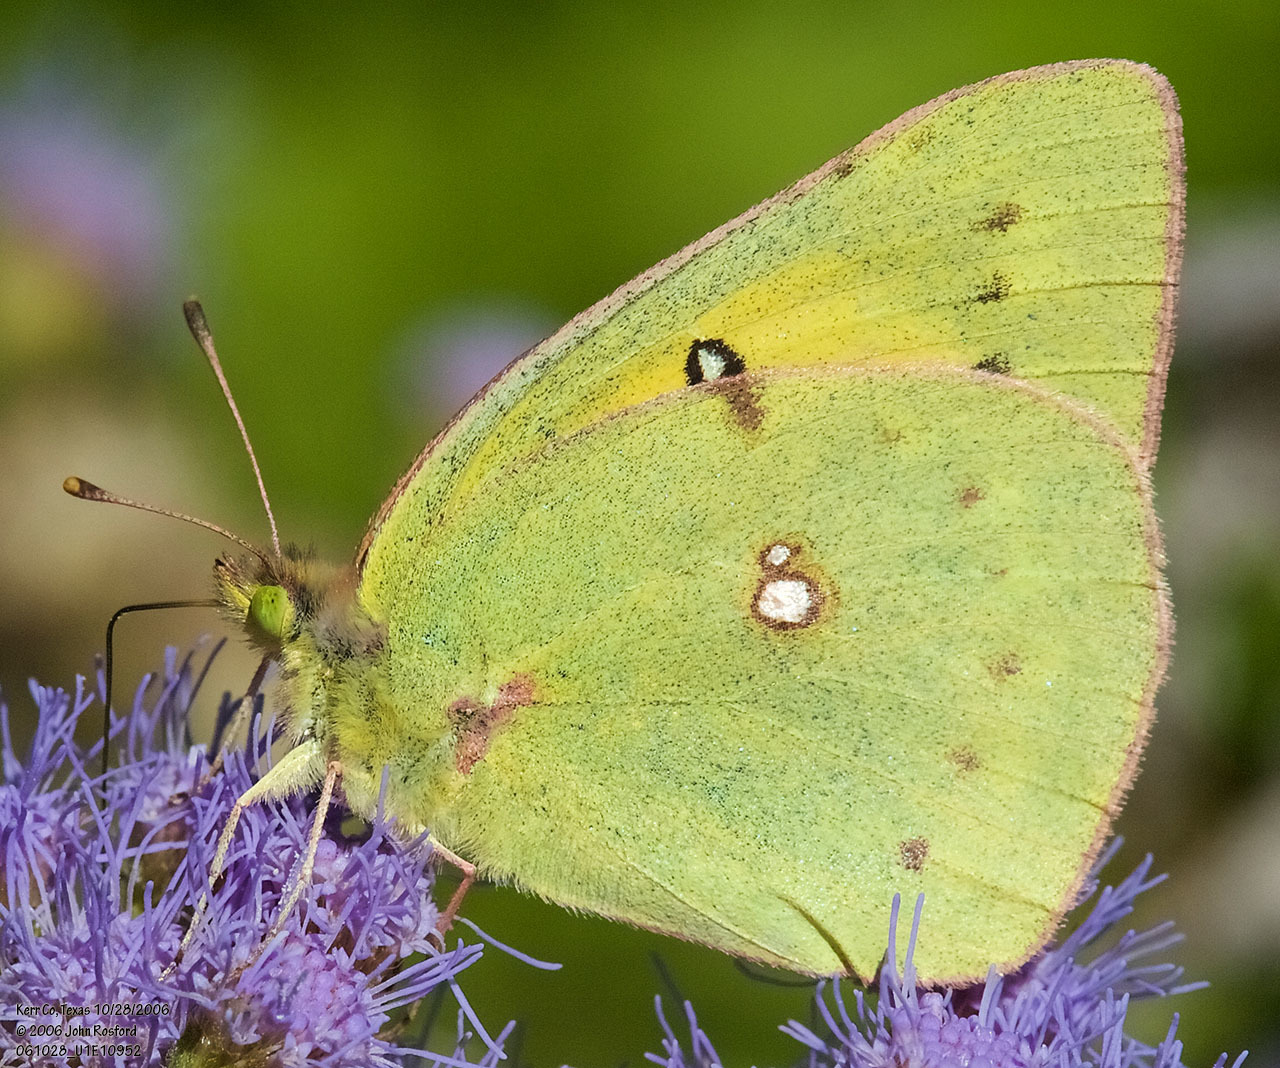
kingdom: Animalia
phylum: Arthropoda
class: Insecta
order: Lepidoptera
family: Pieridae
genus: Colias
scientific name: Colias eurytheme
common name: Alfalfa butterfly
